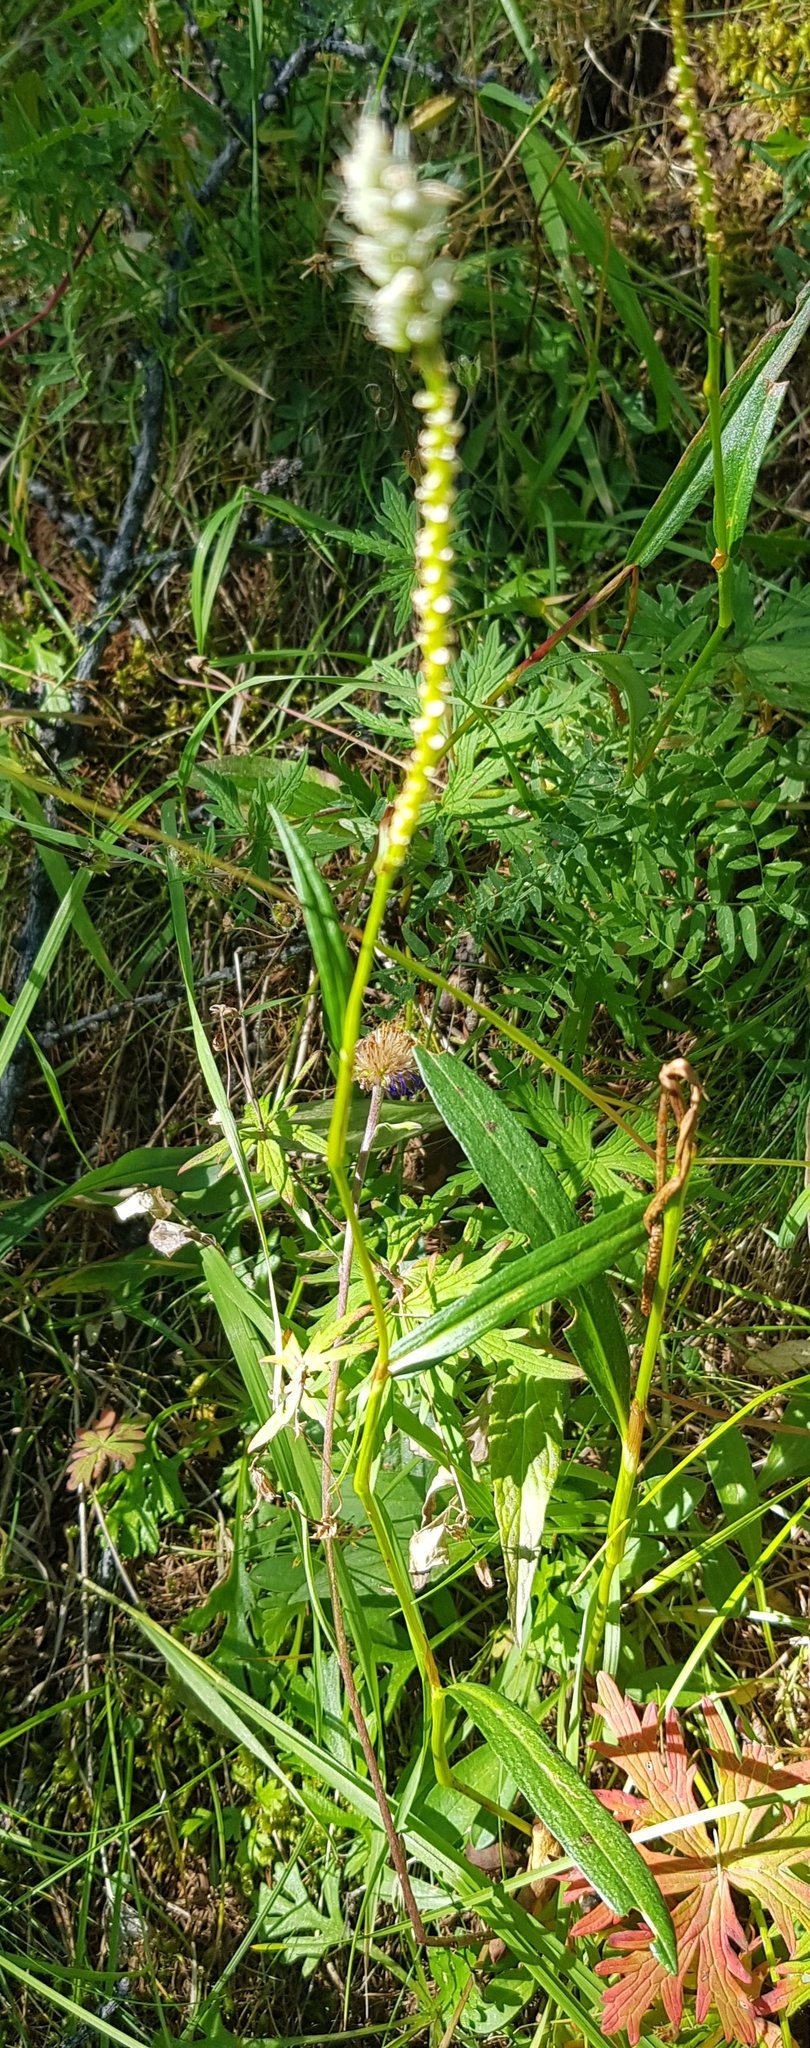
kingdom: Plantae
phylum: Tracheophyta
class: Magnoliopsida
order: Caryophyllales
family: Polygonaceae
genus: Bistorta
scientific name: Bistorta vivipara
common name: Alpine bistort
